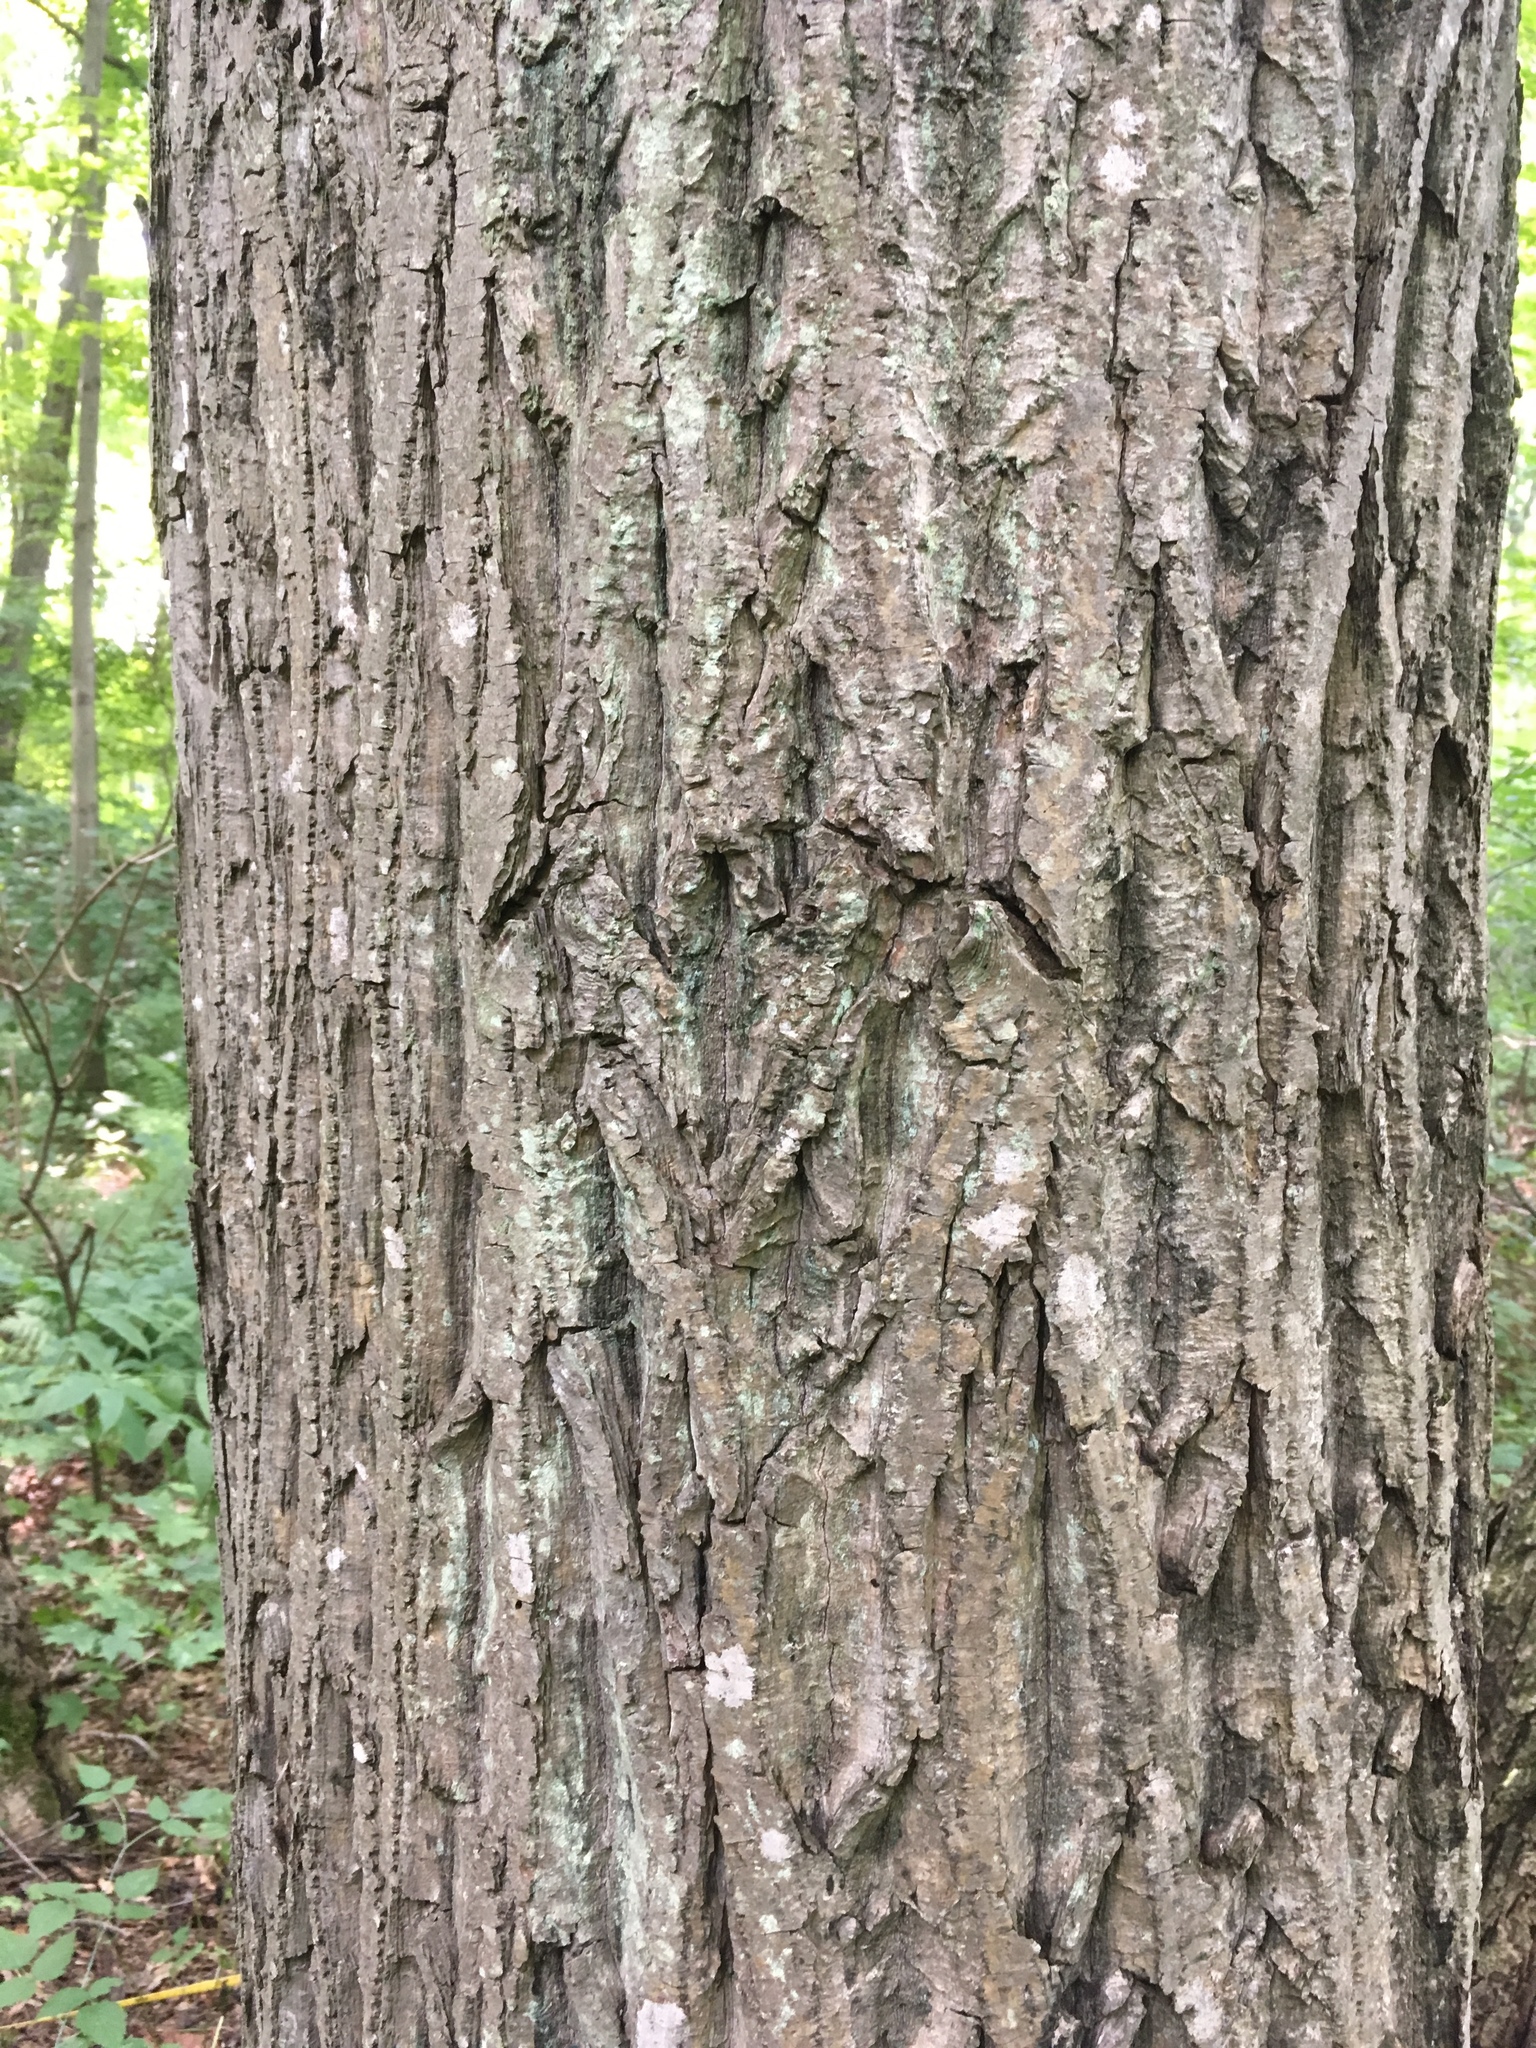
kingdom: Plantae
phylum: Tracheophyta
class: Magnoliopsida
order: Fagales
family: Juglandaceae
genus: Juglans
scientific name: Juglans cinerea
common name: Butternut
